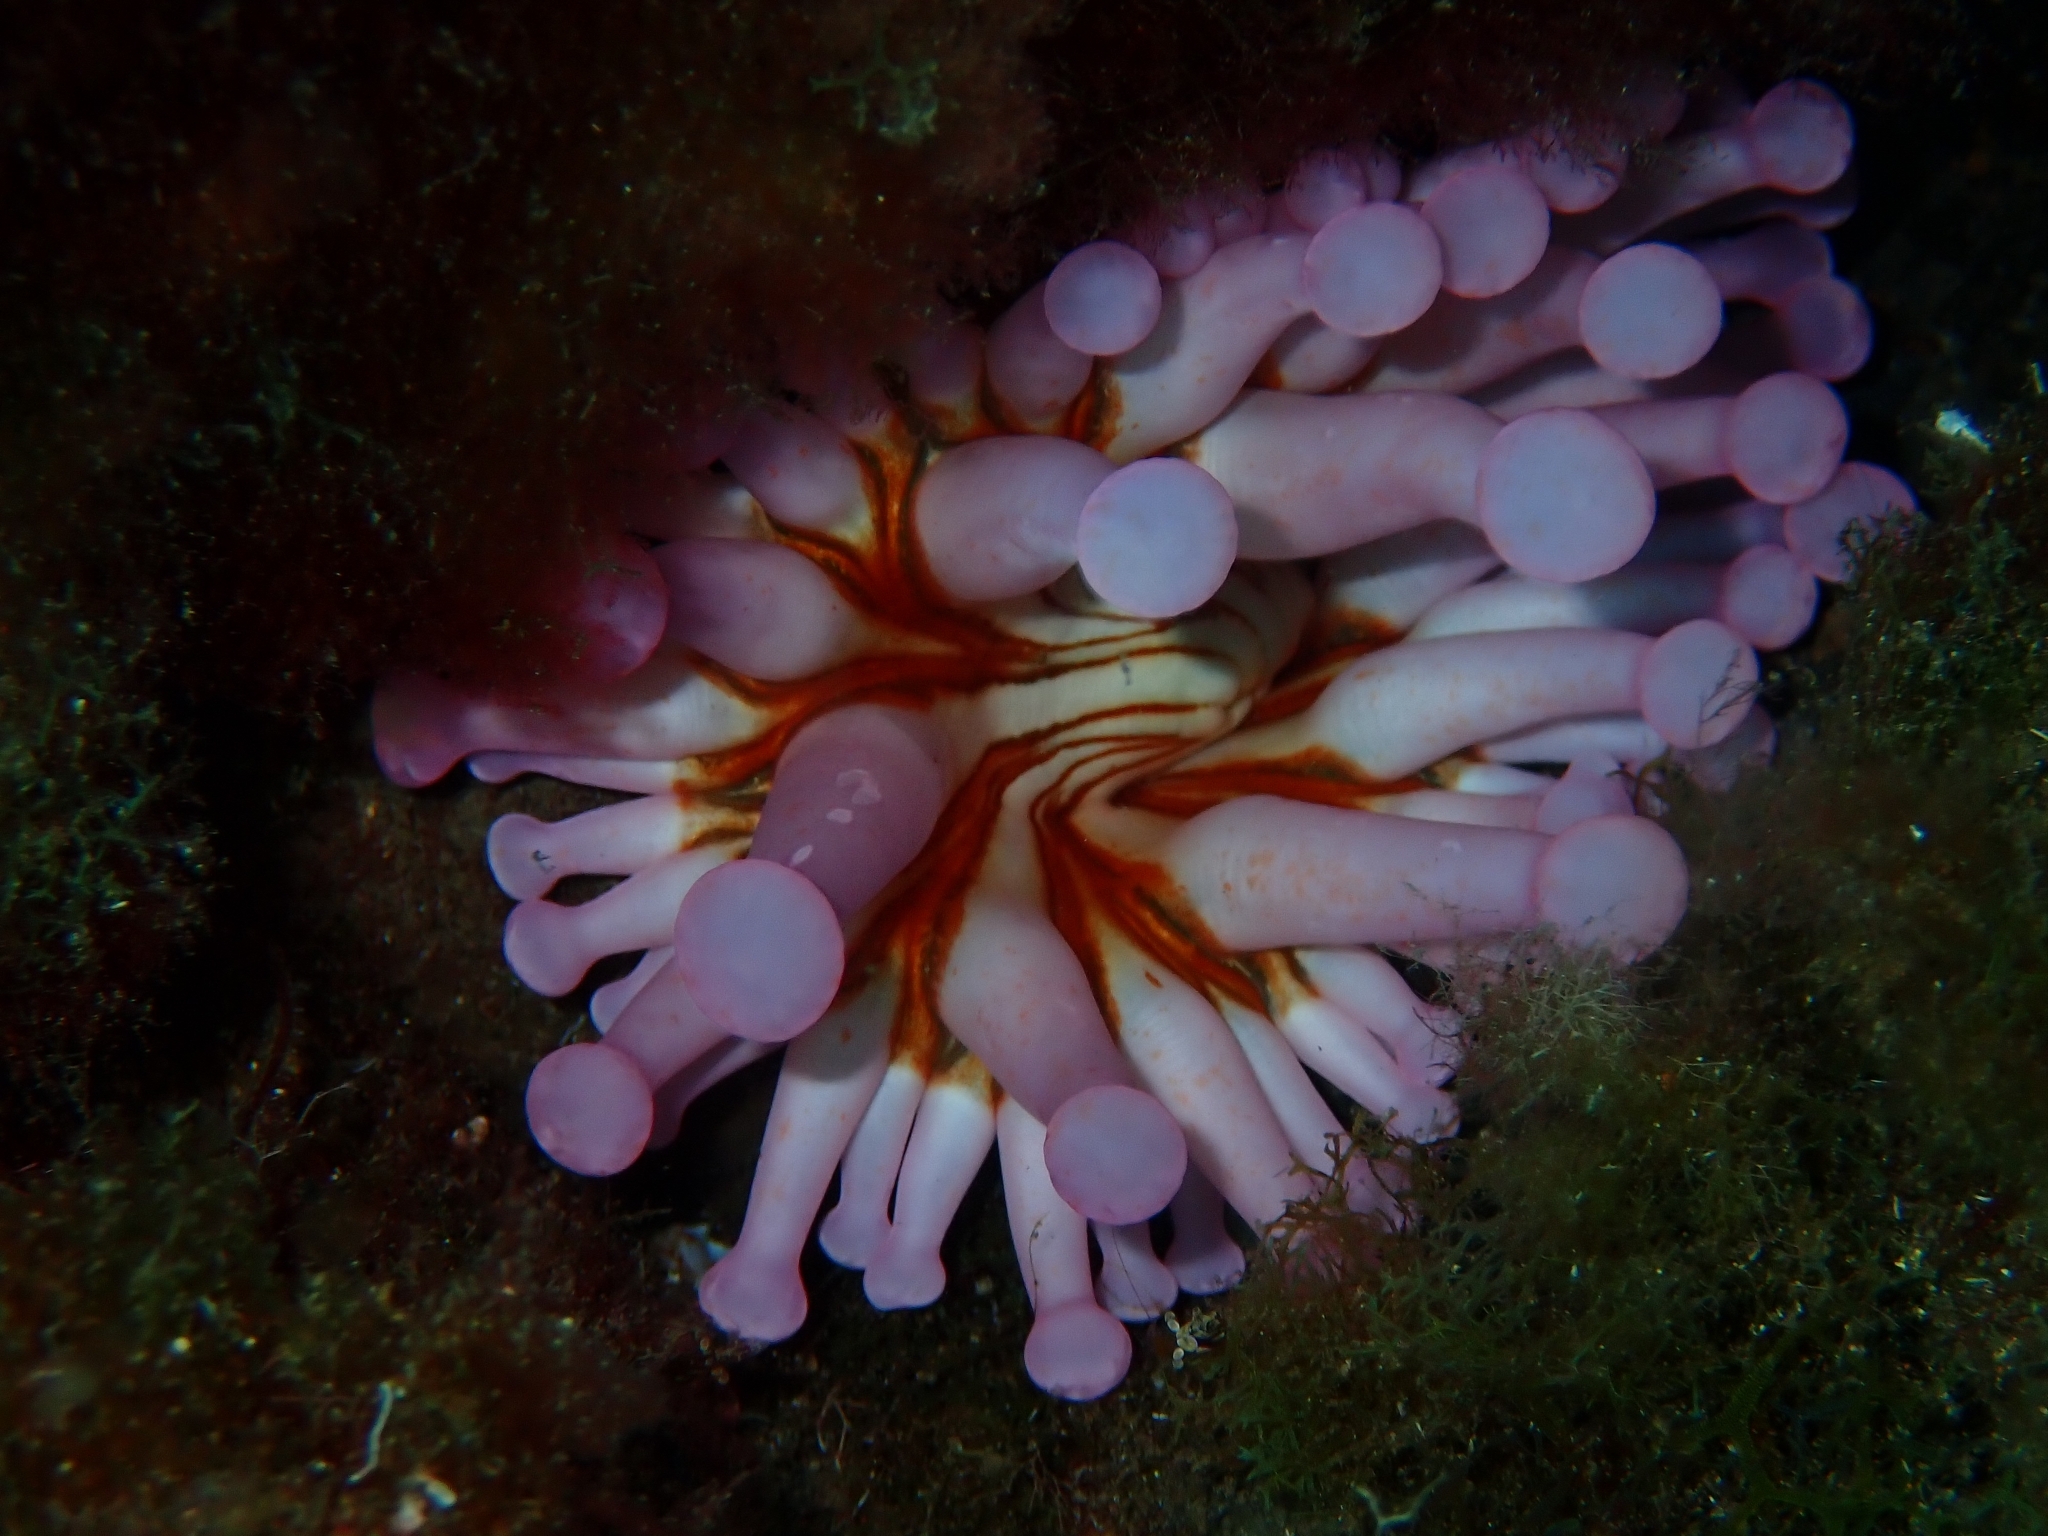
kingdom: Animalia
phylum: Cnidaria
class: Anthozoa
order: Actiniaria
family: Andvakiidae
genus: Telmatactis
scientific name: Telmatactis cricoides
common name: Blunt-tentacled anemone
